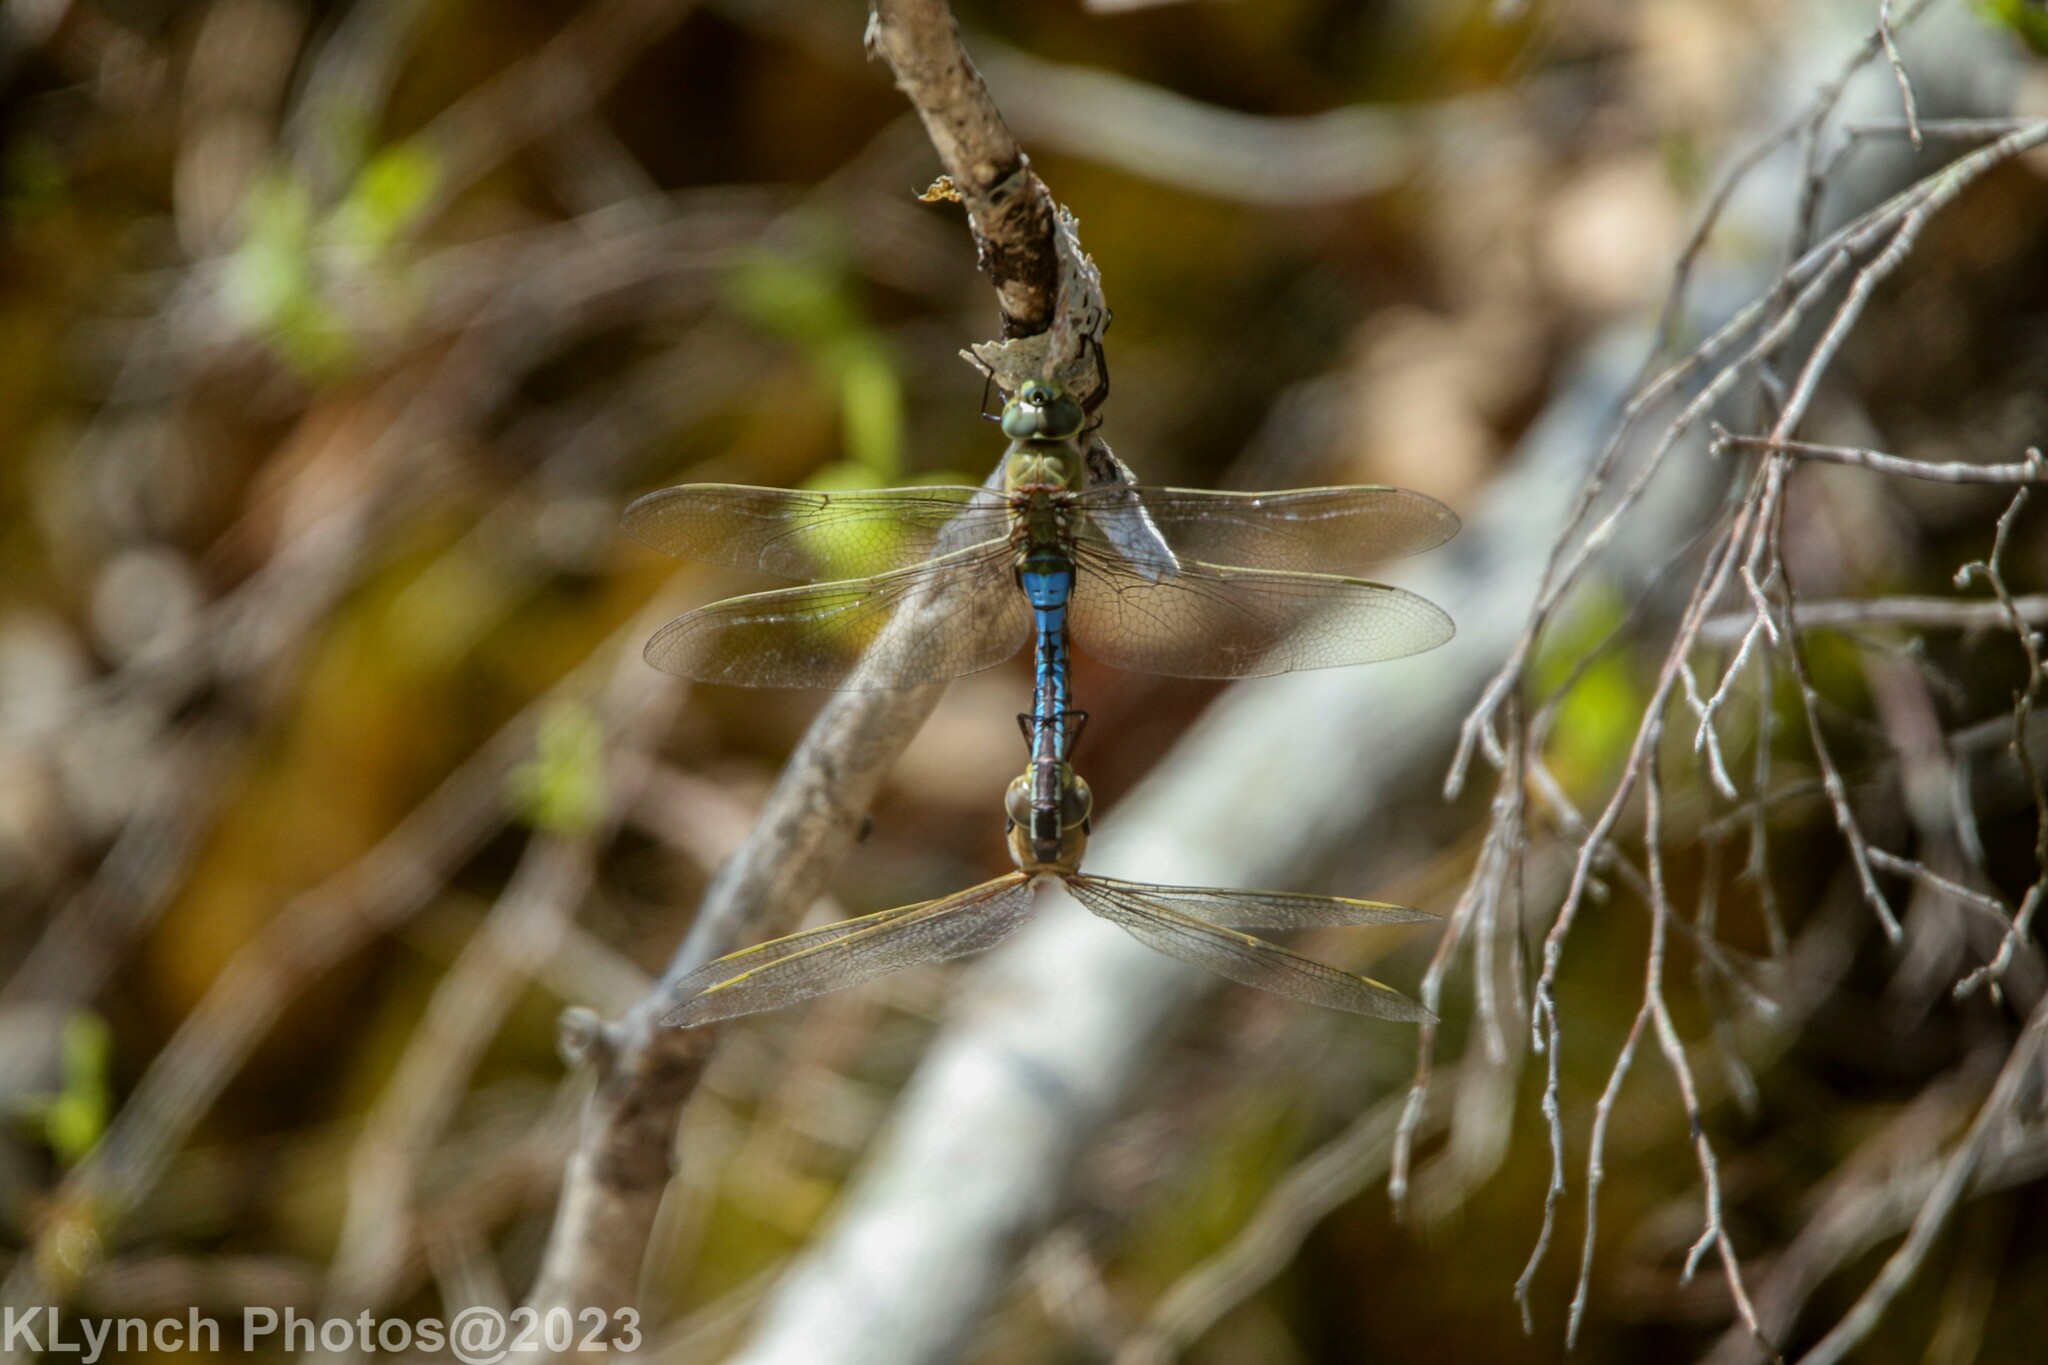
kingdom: Animalia
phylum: Arthropoda
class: Insecta
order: Odonata
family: Aeshnidae
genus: Anax
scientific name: Anax junius
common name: Common green darner
